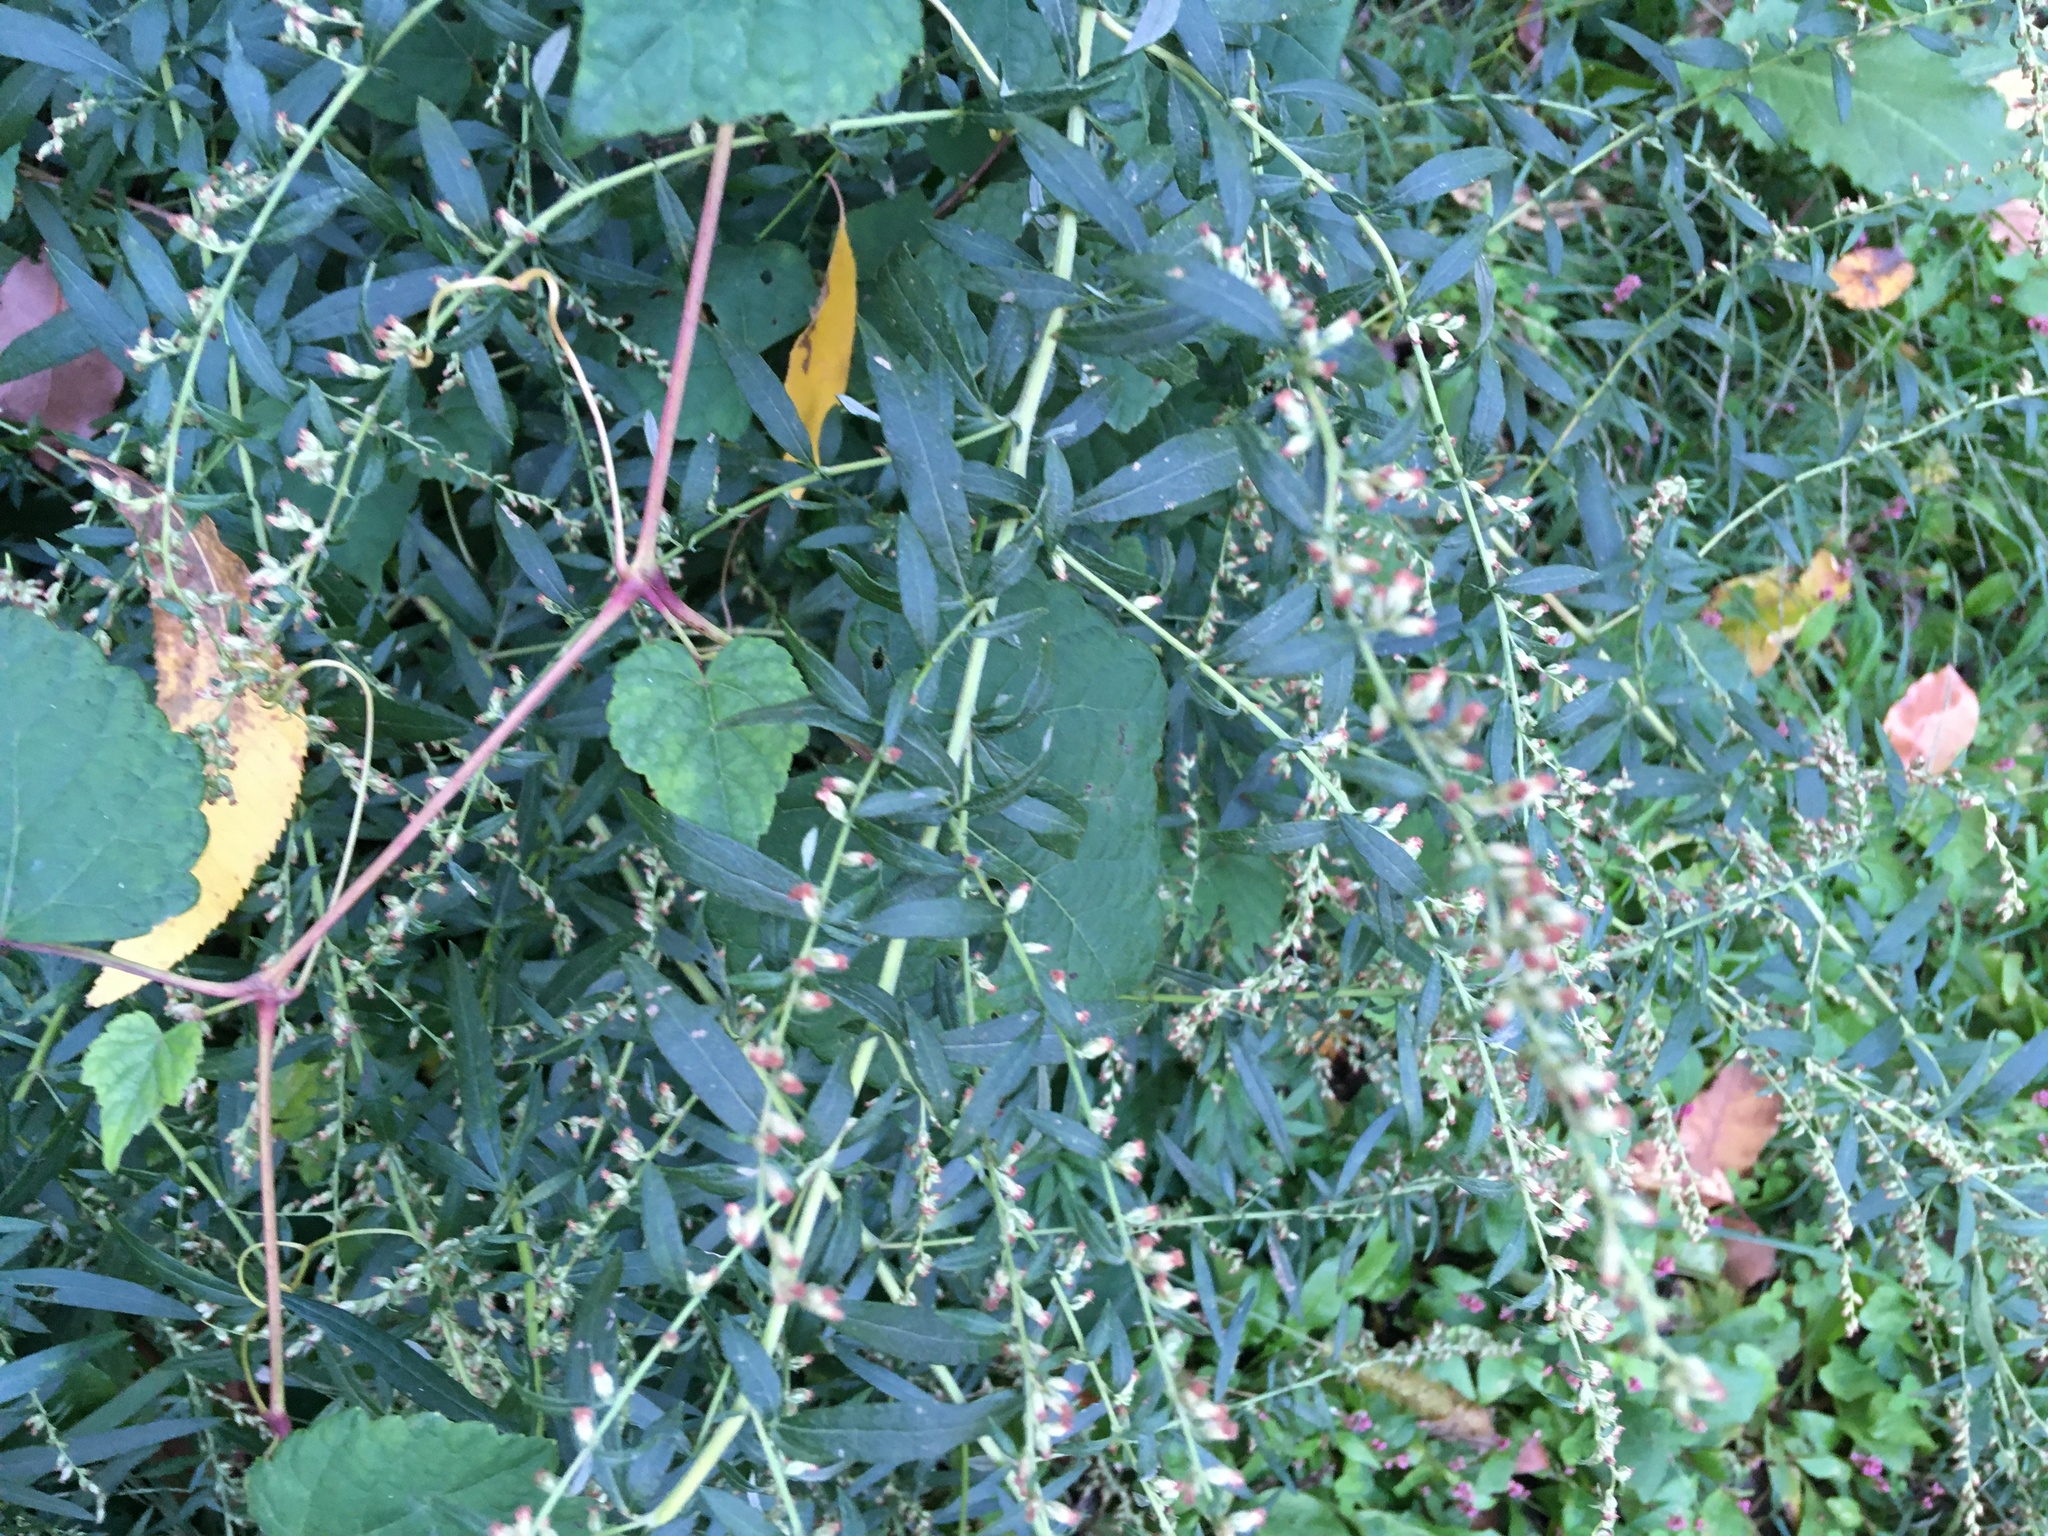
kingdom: Plantae
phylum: Tracheophyta
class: Magnoliopsida
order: Asterales
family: Asteraceae
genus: Artemisia
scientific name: Artemisia vulgaris
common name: Mugwort
